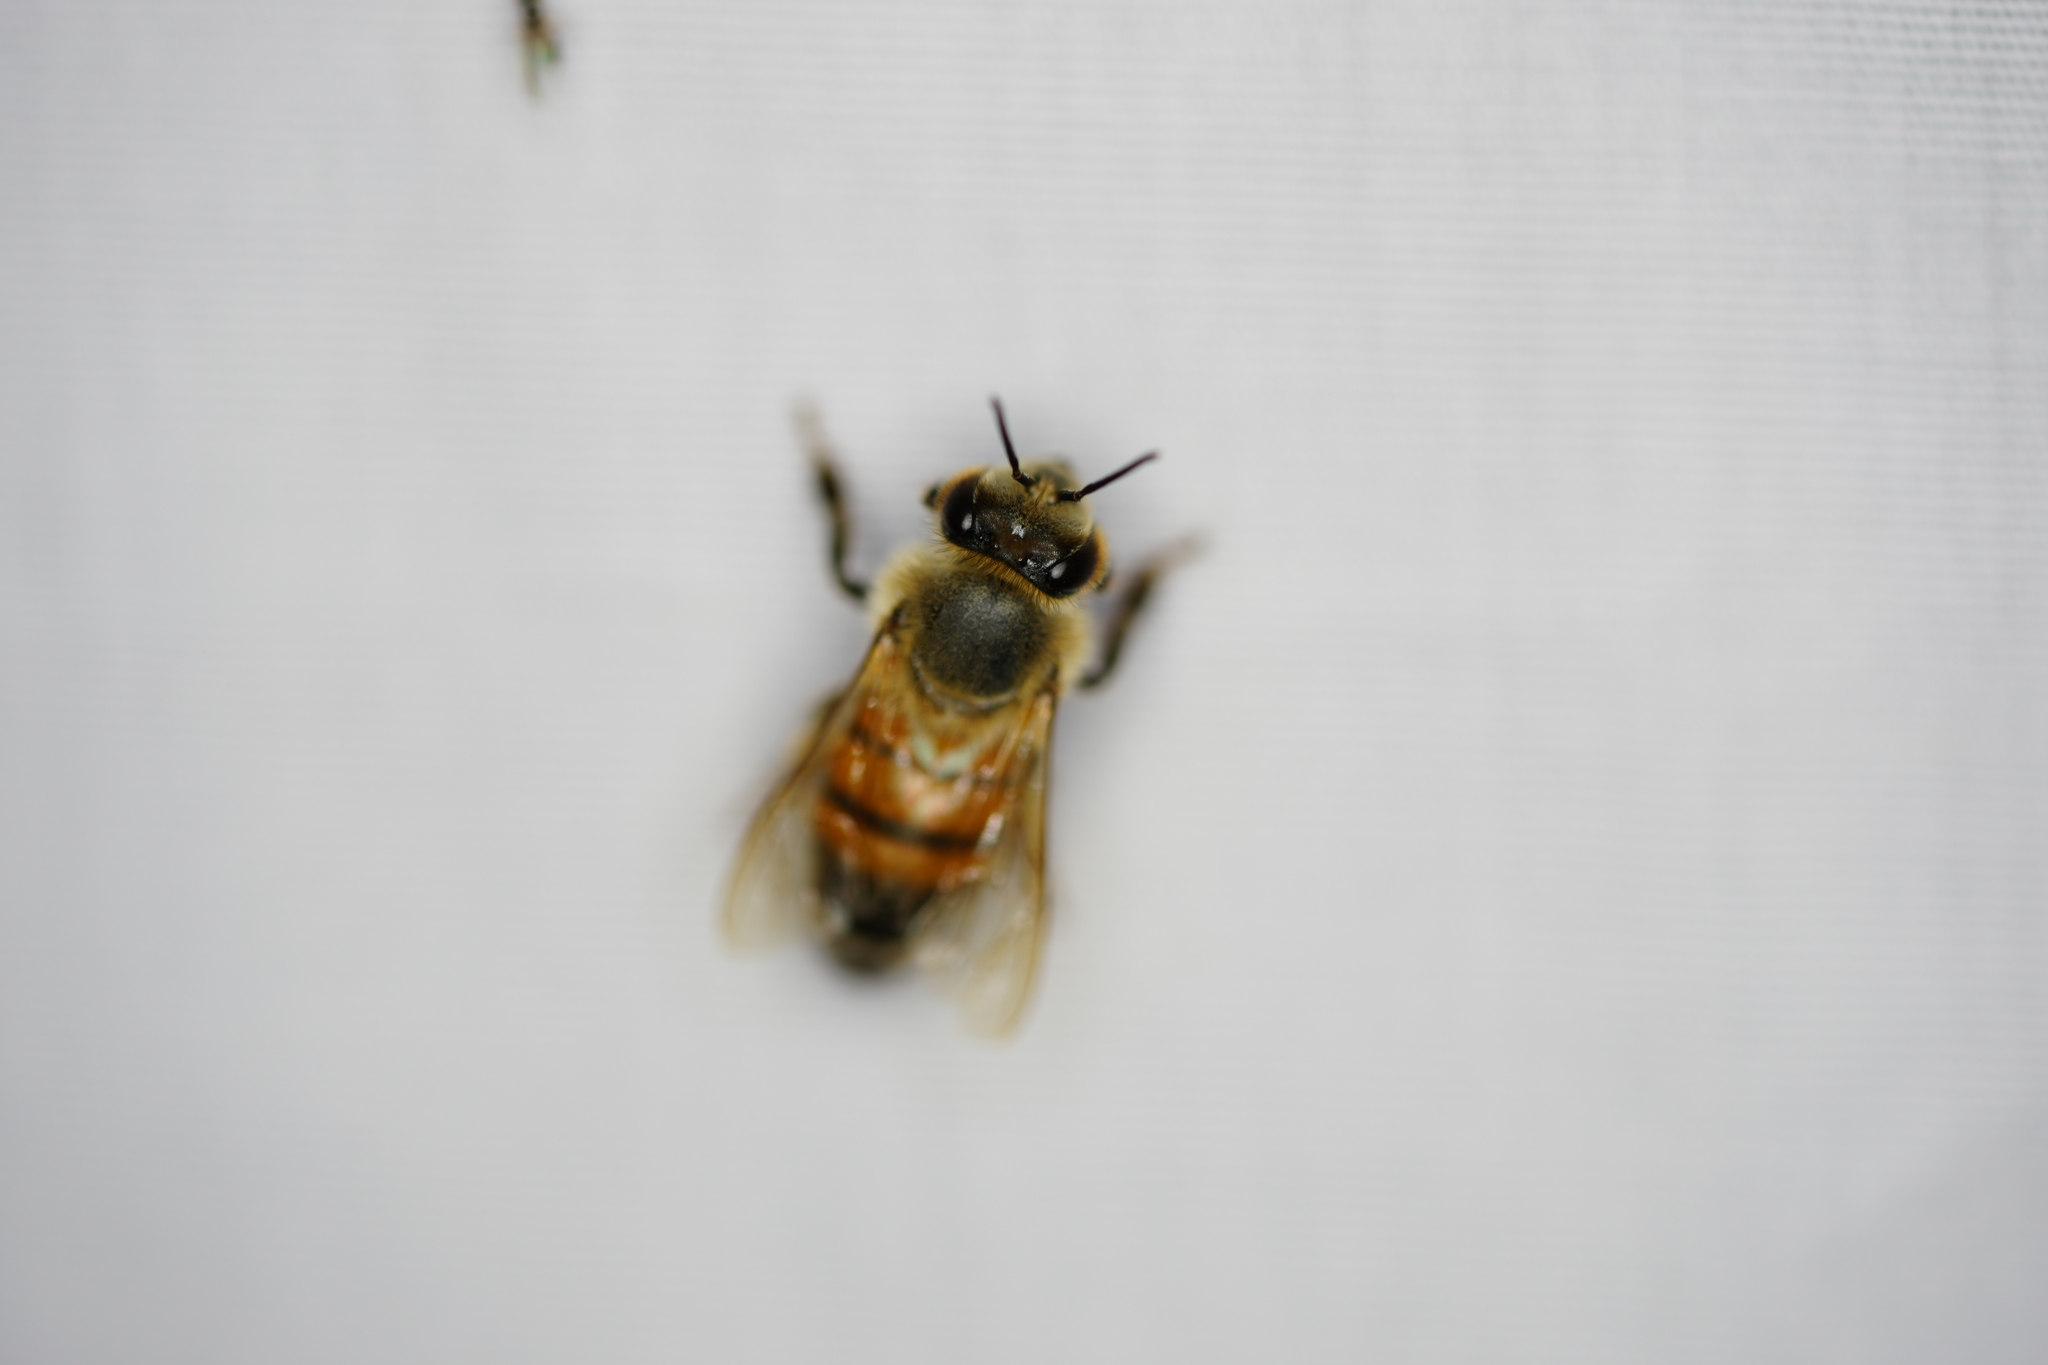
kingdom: Animalia
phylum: Arthropoda
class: Insecta
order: Hymenoptera
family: Apidae
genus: Apis
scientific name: Apis mellifera
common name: Honey bee
